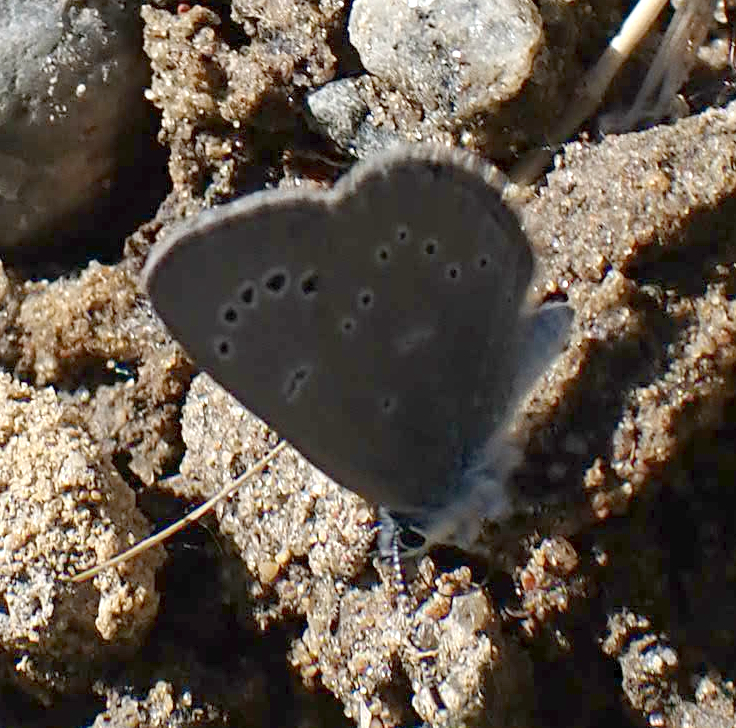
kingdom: Animalia
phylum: Arthropoda
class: Insecta
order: Lepidoptera
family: Lycaenidae
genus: Glaucopsyche
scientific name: Glaucopsyche lygdamus
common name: Silvery blue
